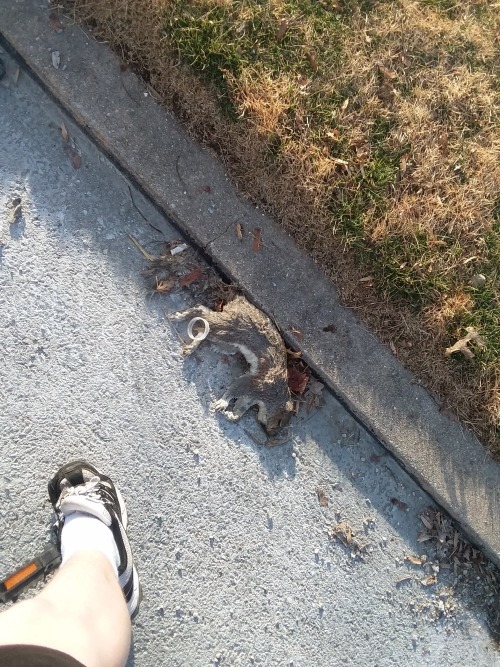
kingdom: Animalia
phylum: Chordata
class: Mammalia
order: Rodentia
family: Sciuridae
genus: Sciurus
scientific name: Sciurus carolinensis
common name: Eastern gray squirrel
